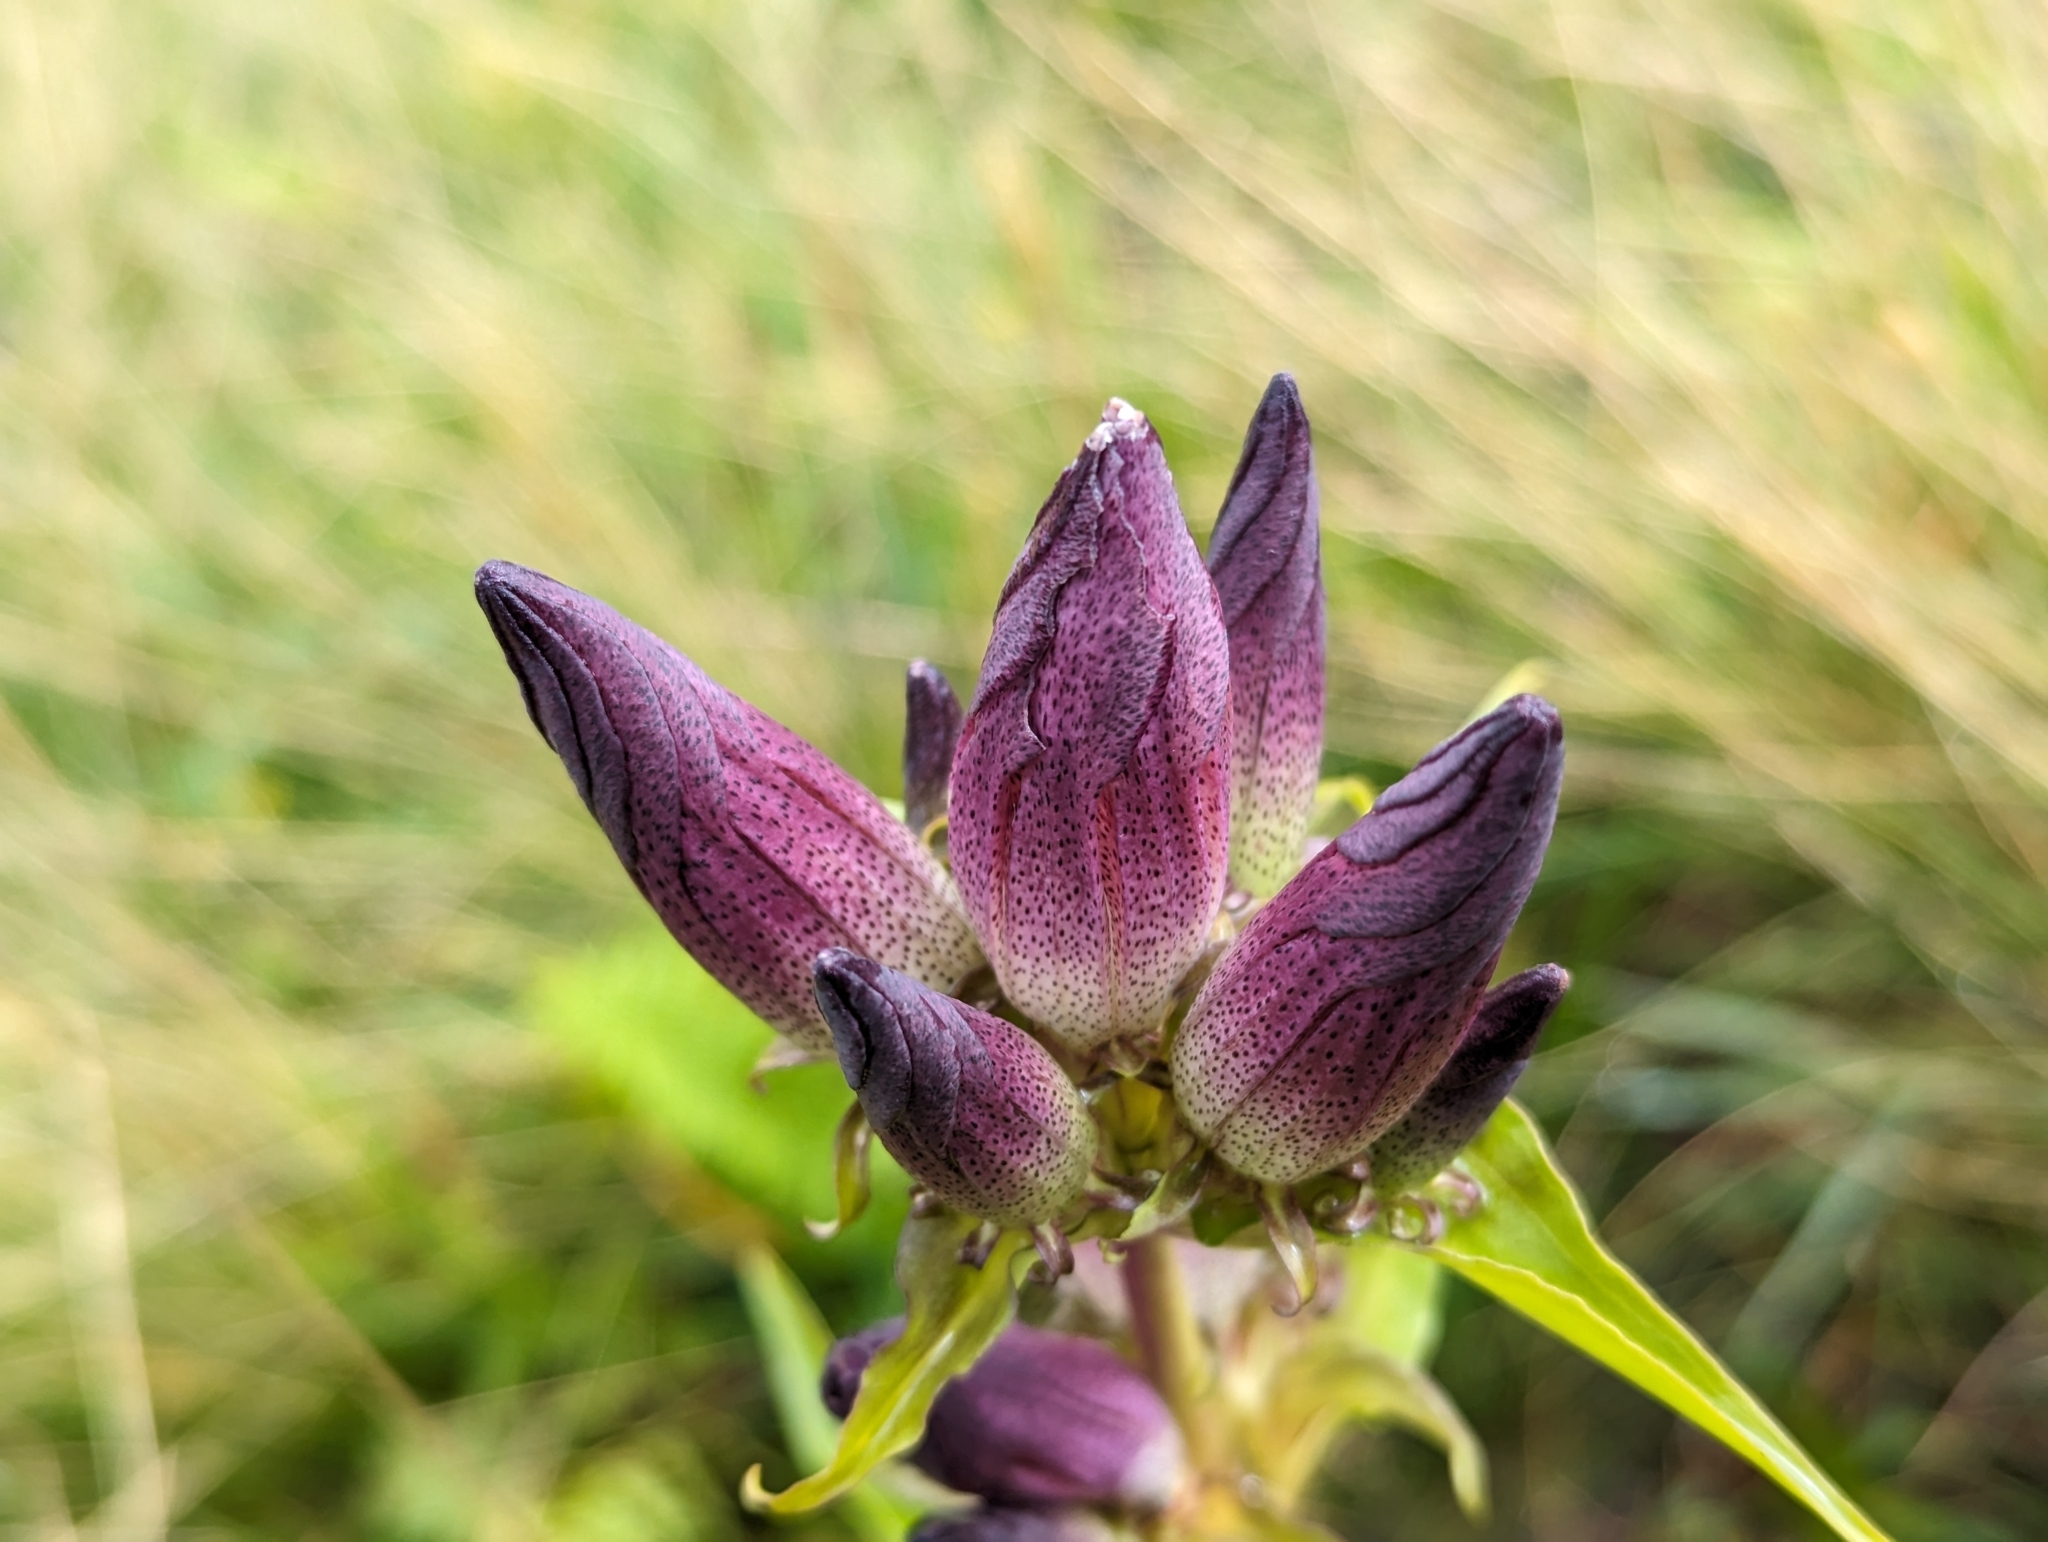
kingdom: Plantae
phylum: Tracheophyta
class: Magnoliopsida
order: Gentianales
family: Gentianaceae
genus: Gentiana
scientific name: Gentiana pannonica
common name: Hungarian gentian
